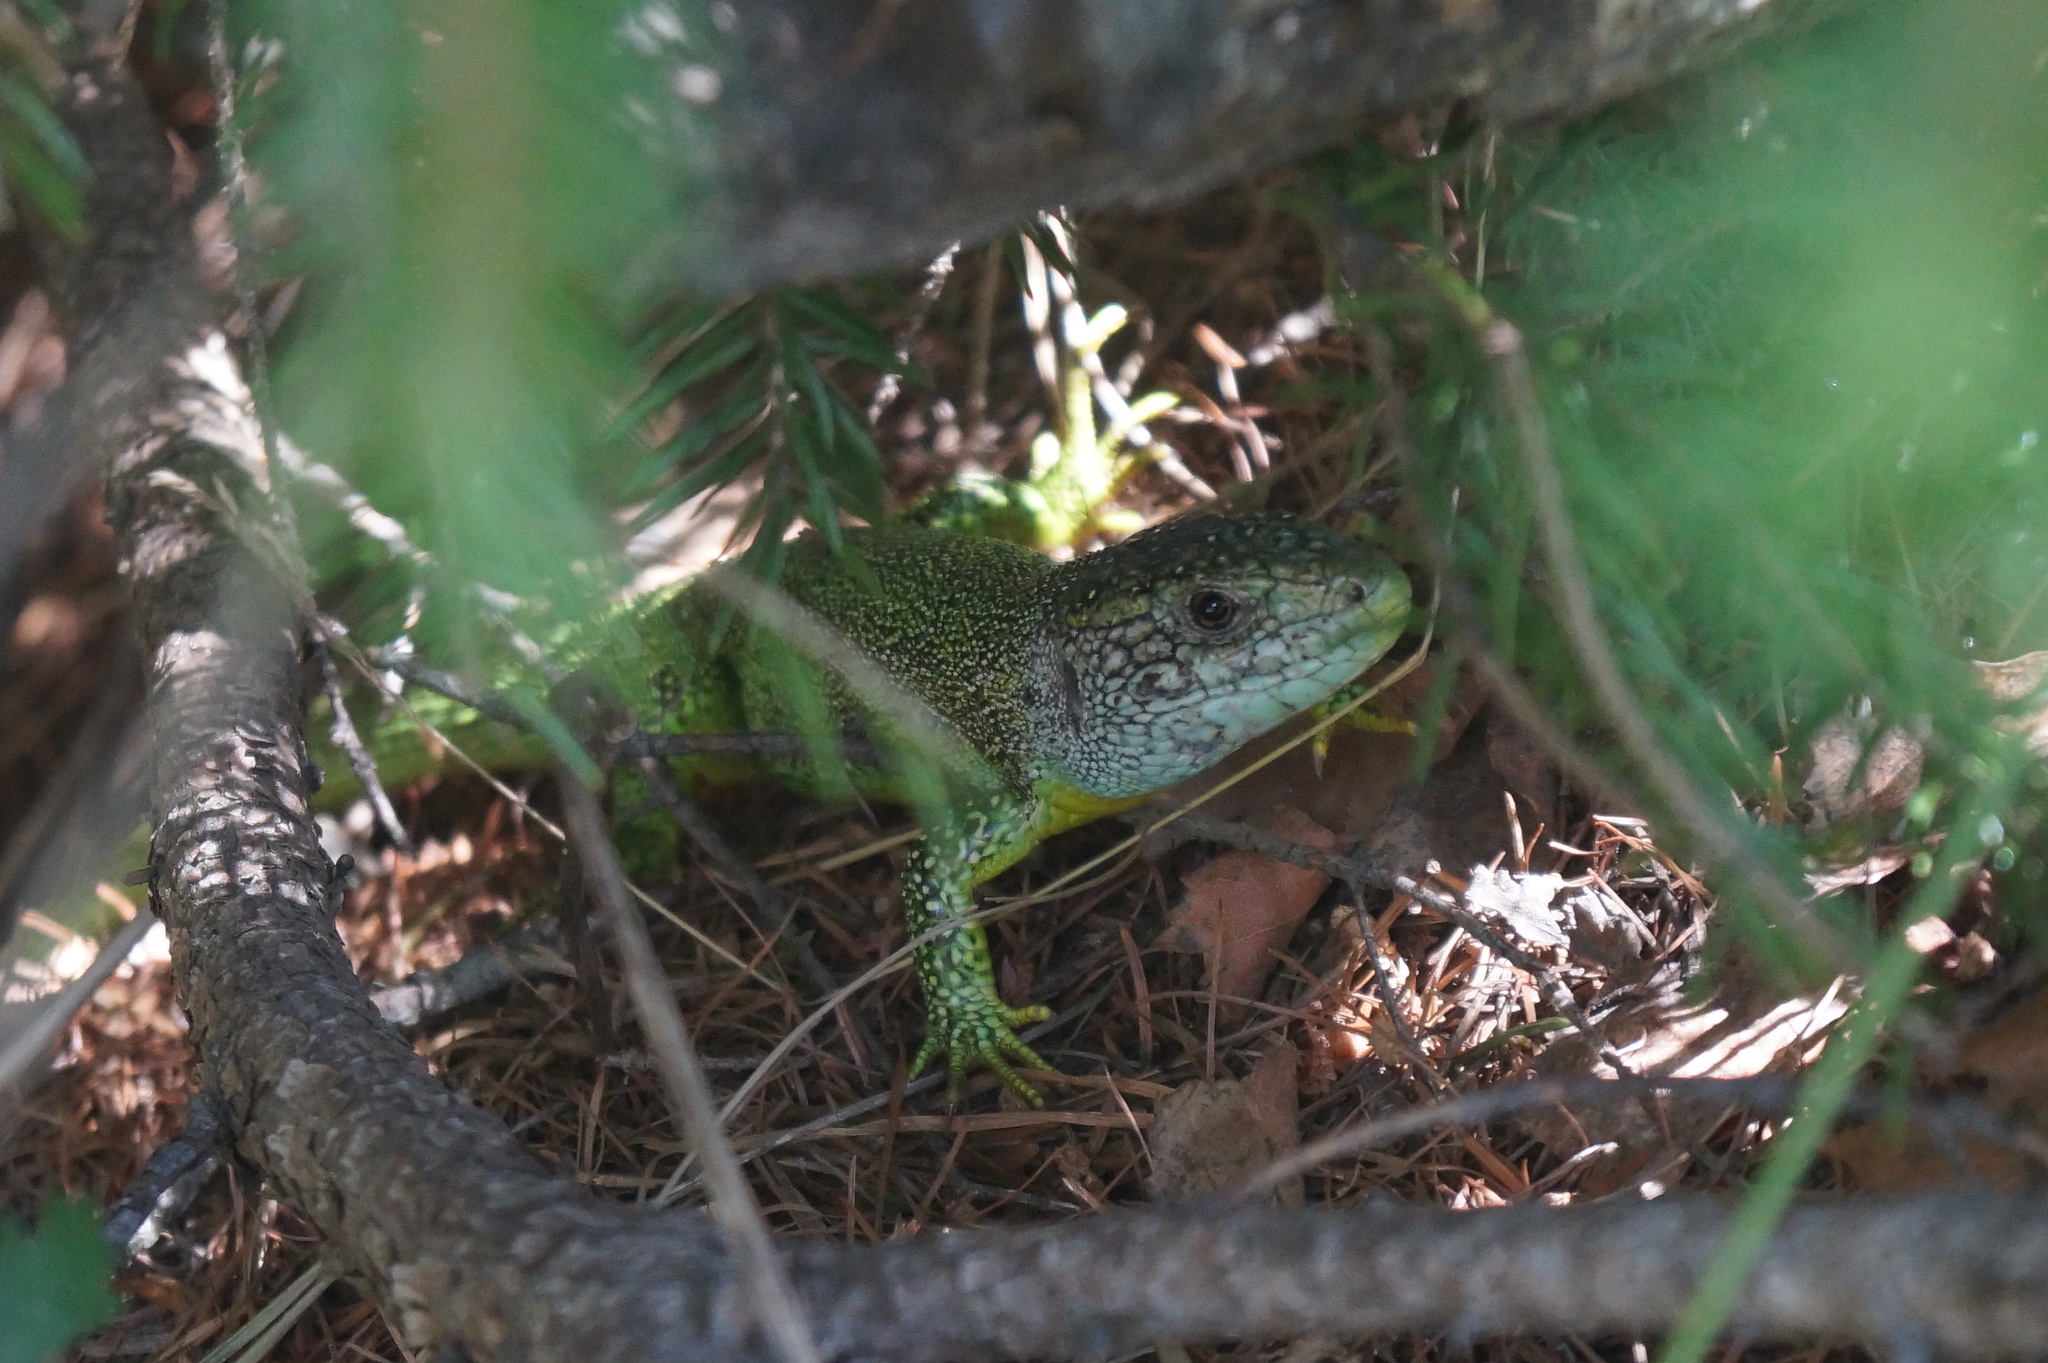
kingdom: Animalia
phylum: Chordata
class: Squamata
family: Lacertidae
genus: Lacerta
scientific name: Lacerta bilineata
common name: Western green lizard
